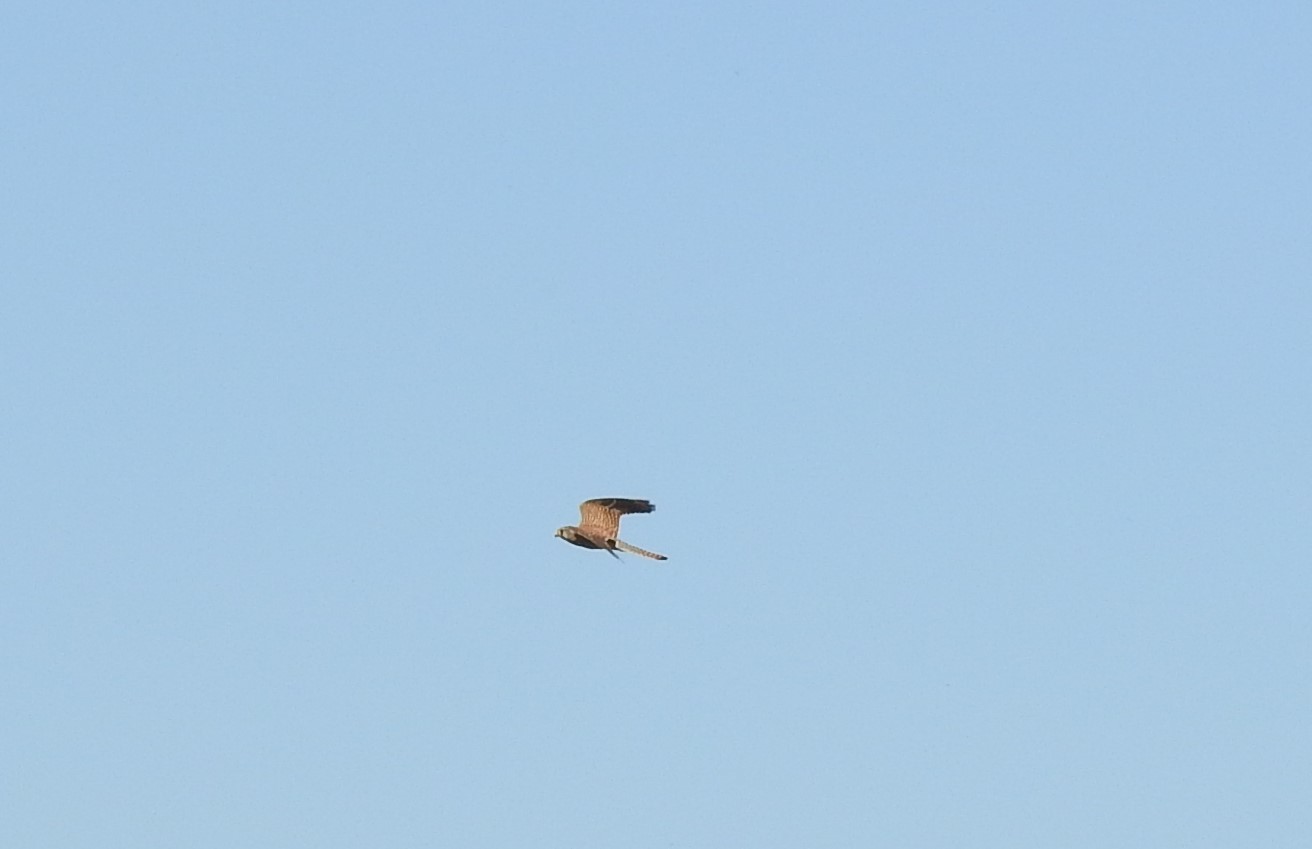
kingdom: Animalia
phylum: Chordata
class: Aves
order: Falconiformes
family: Falconidae
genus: Falco
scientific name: Falco tinnunculus
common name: Common kestrel
